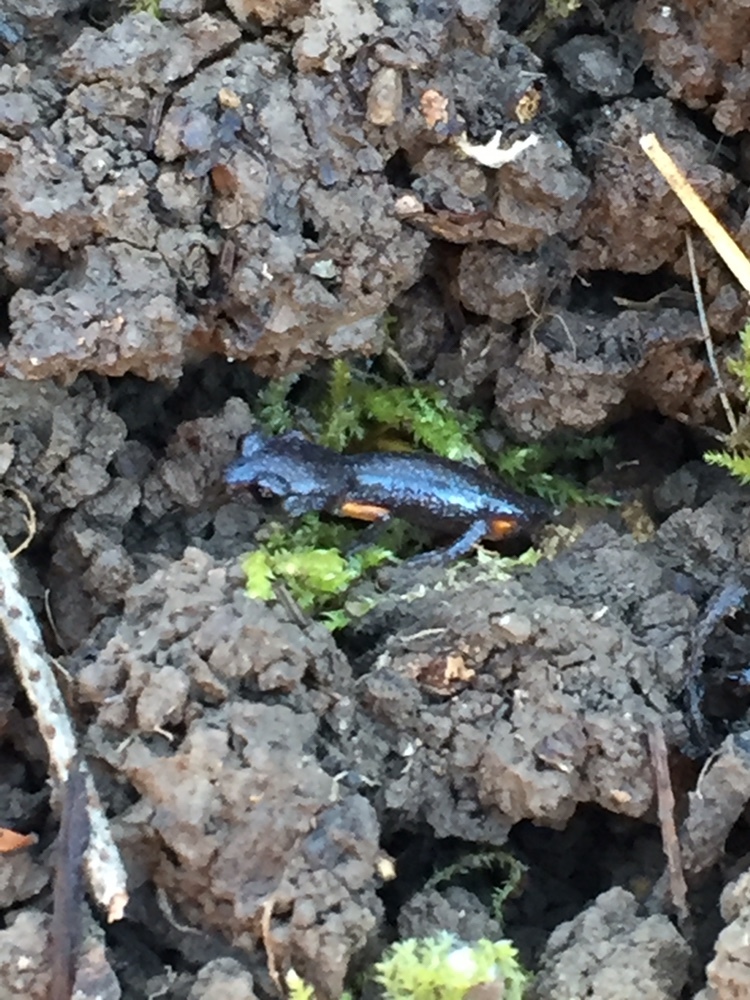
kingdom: Animalia
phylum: Chordata
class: Amphibia
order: Caudata
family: Plethodontidae
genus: Ensatina
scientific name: Ensatina eschscholtzii
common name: Ensatina
